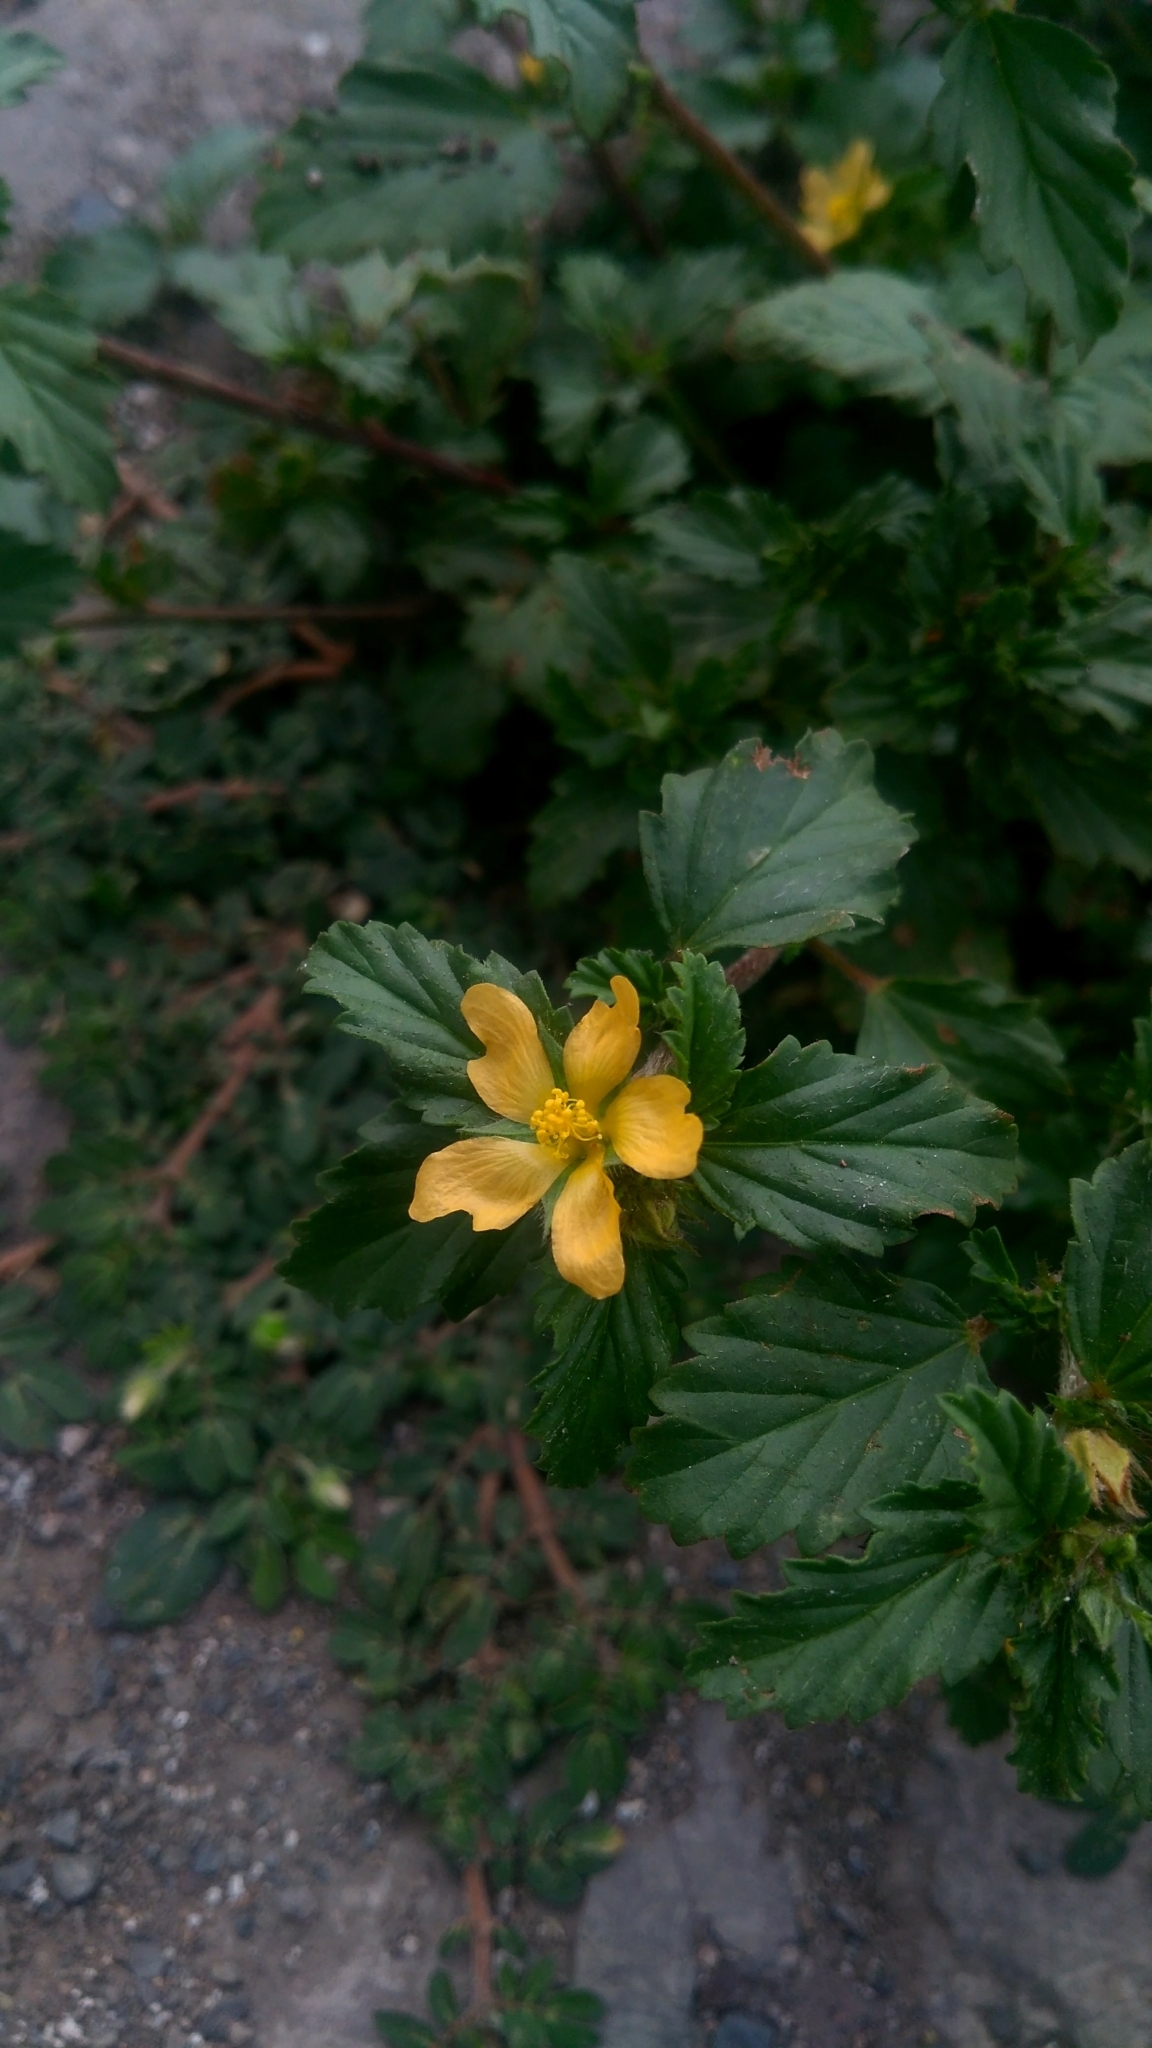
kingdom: Plantae
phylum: Tracheophyta
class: Magnoliopsida
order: Malvales
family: Malvaceae
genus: Malvastrum
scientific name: Malvastrum coromandelianum
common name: Threelobe false mallow
